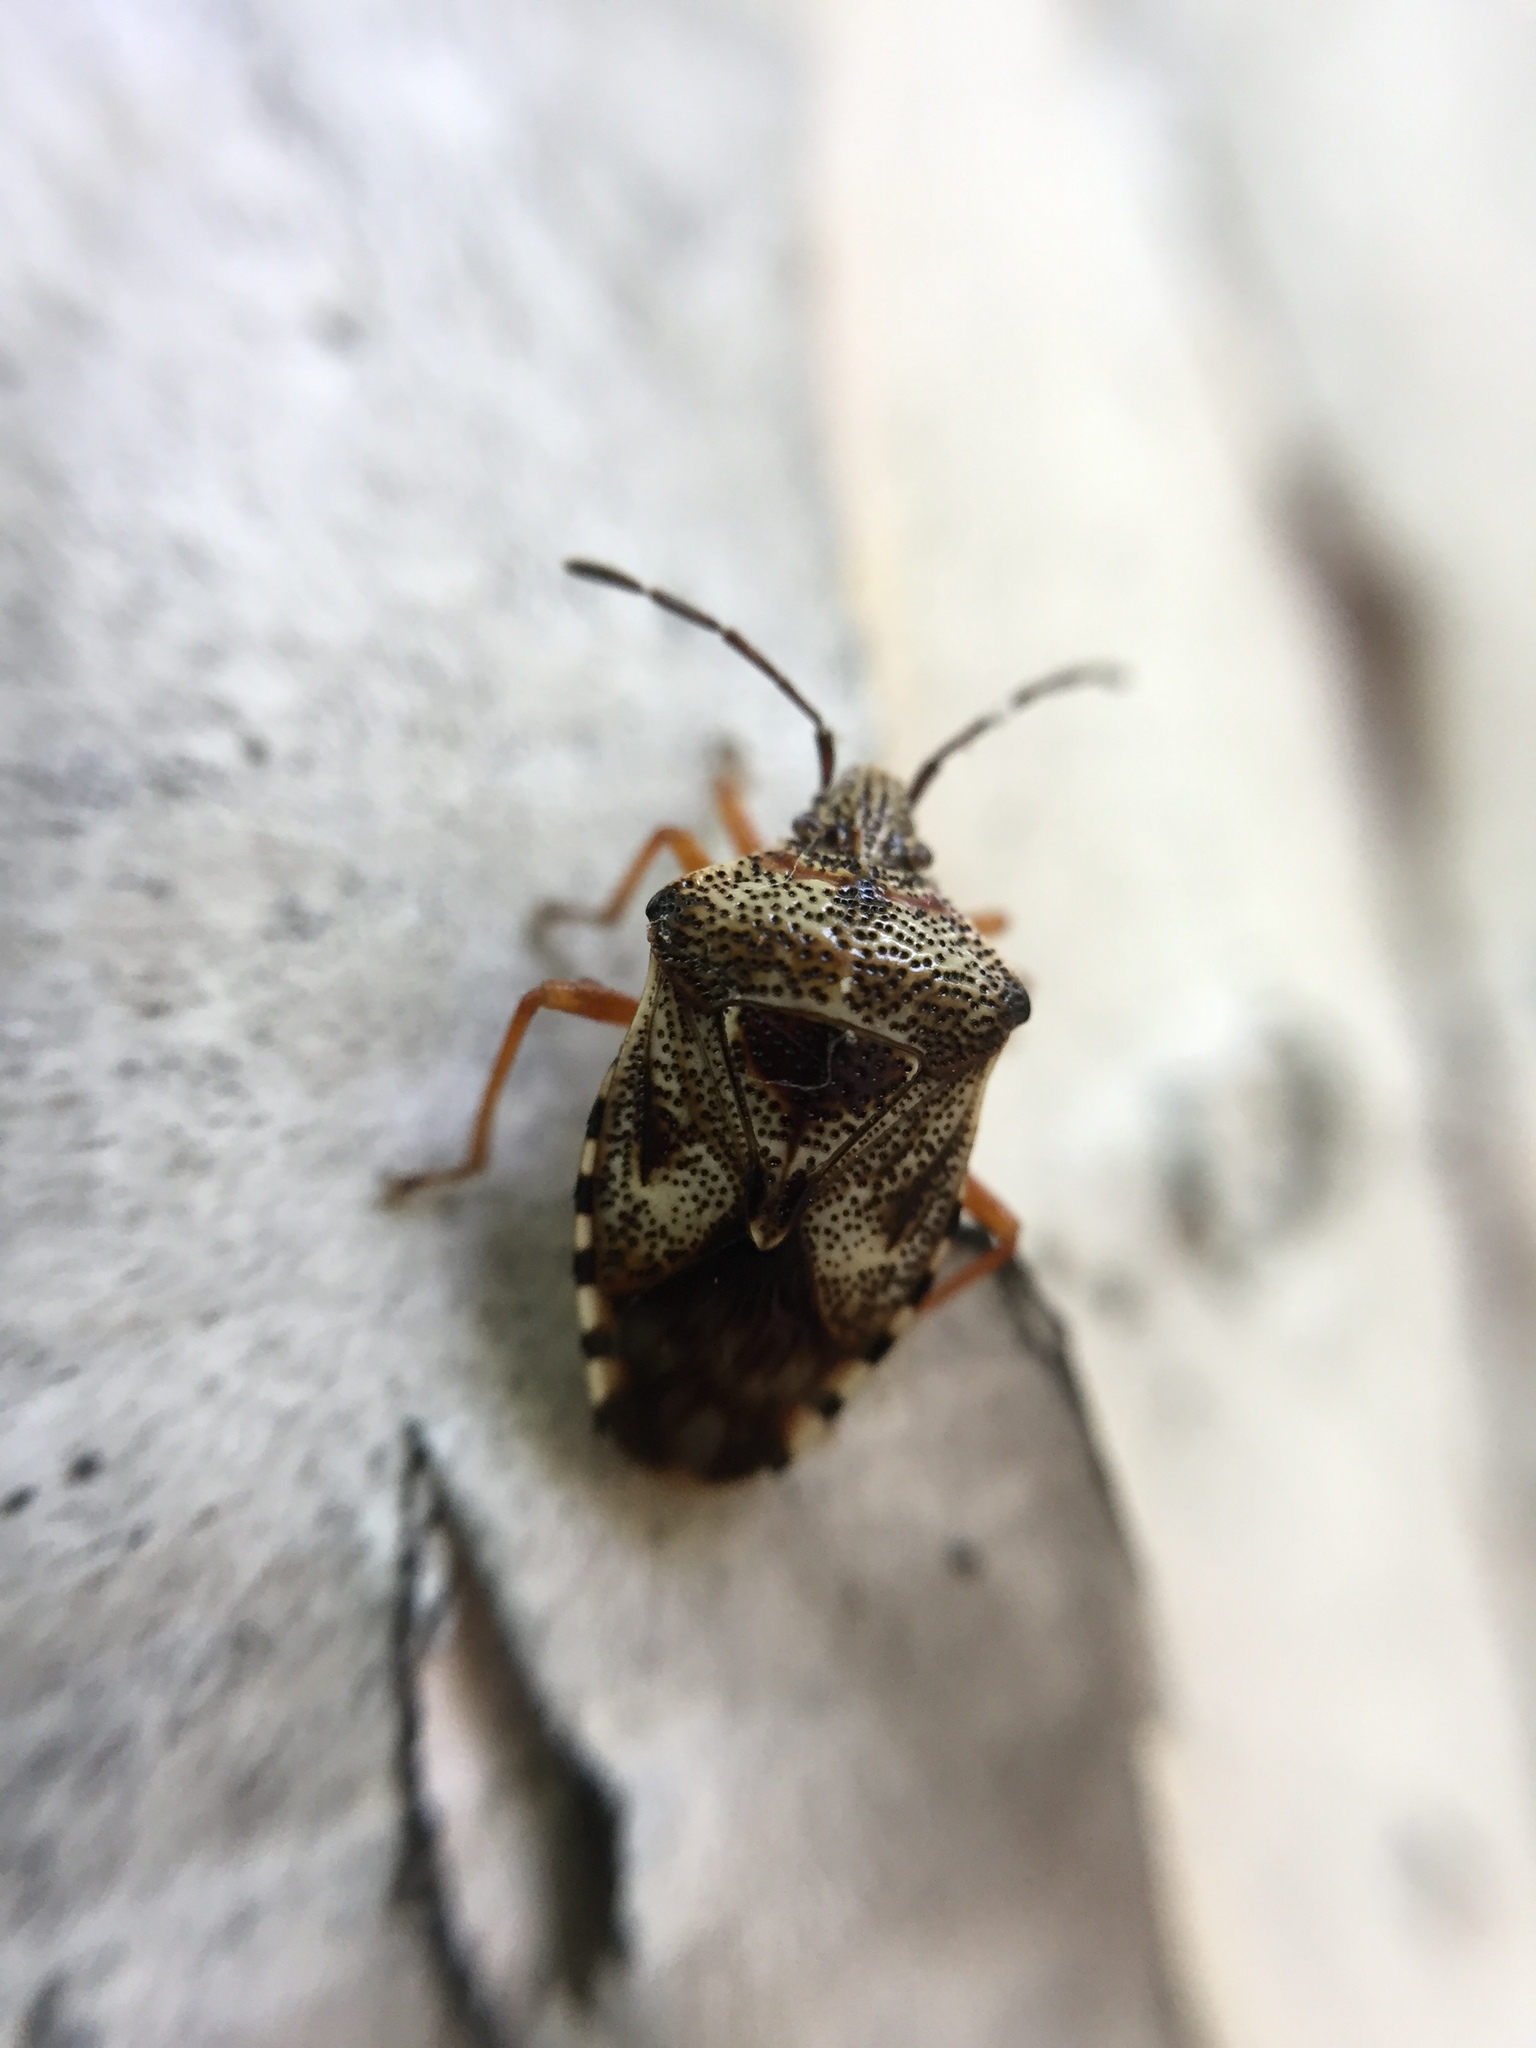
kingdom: Animalia
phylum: Arthropoda
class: Insecta
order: Hemiptera
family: Acanthosomatidae
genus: Elasmucha
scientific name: Elasmucha lateralis
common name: Shield bug
